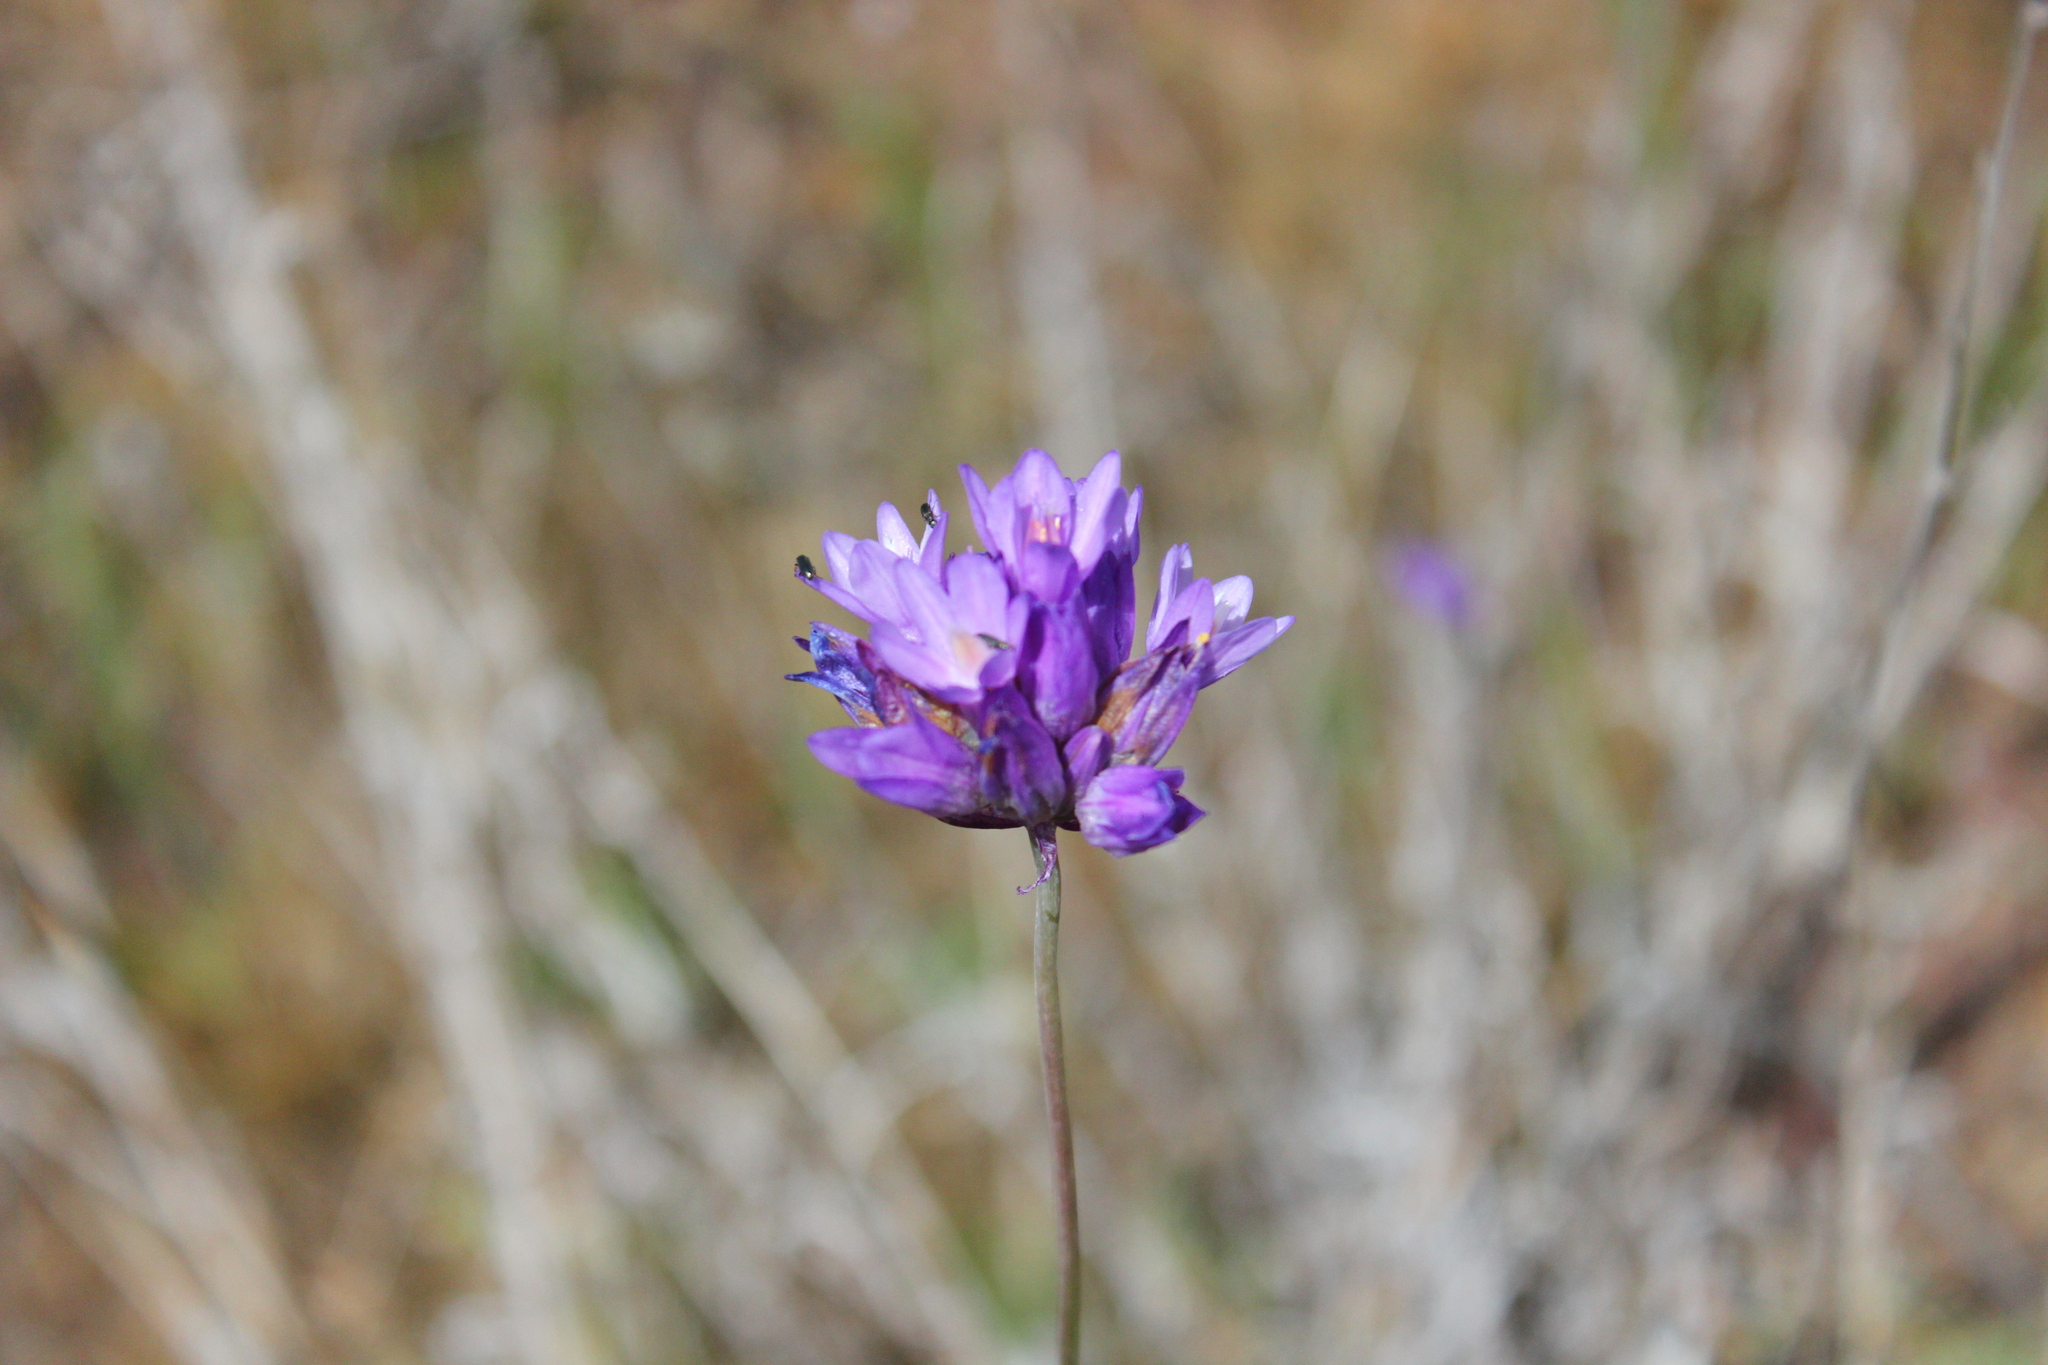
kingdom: Plantae
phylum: Tracheophyta
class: Liliopsida
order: Asparagales
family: Asparagaceae
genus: Dipterostemon
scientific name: Dipterostemon capitatus
